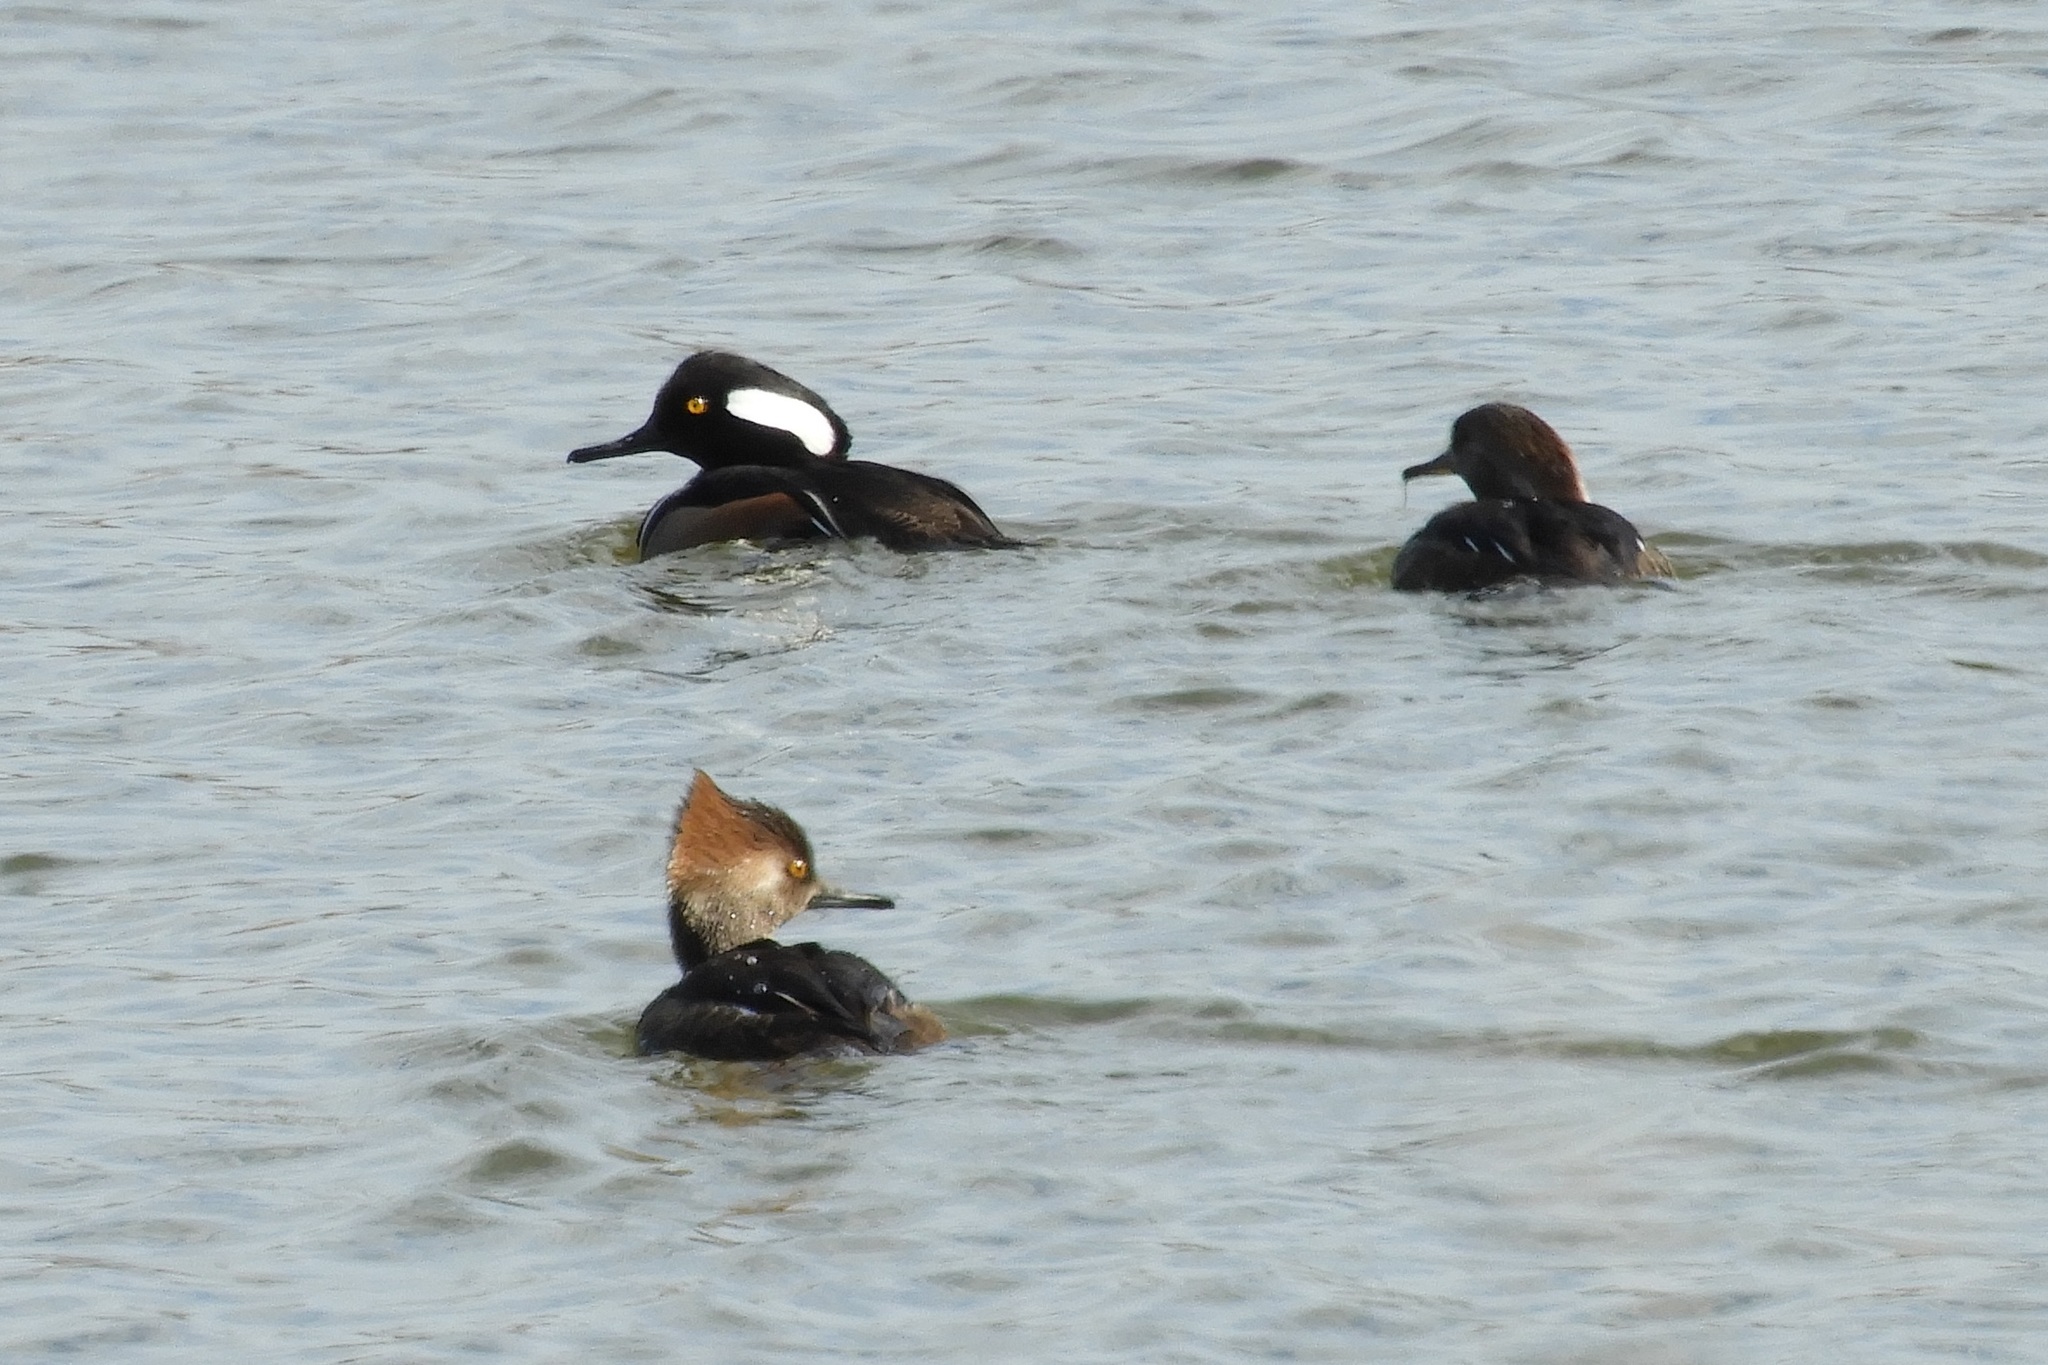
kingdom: Animalia
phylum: Chordata
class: Aves
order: Anseriformes
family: Anatidae
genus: Lophodytes
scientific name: Lophodytes cucullatus
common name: Hooded merganser
